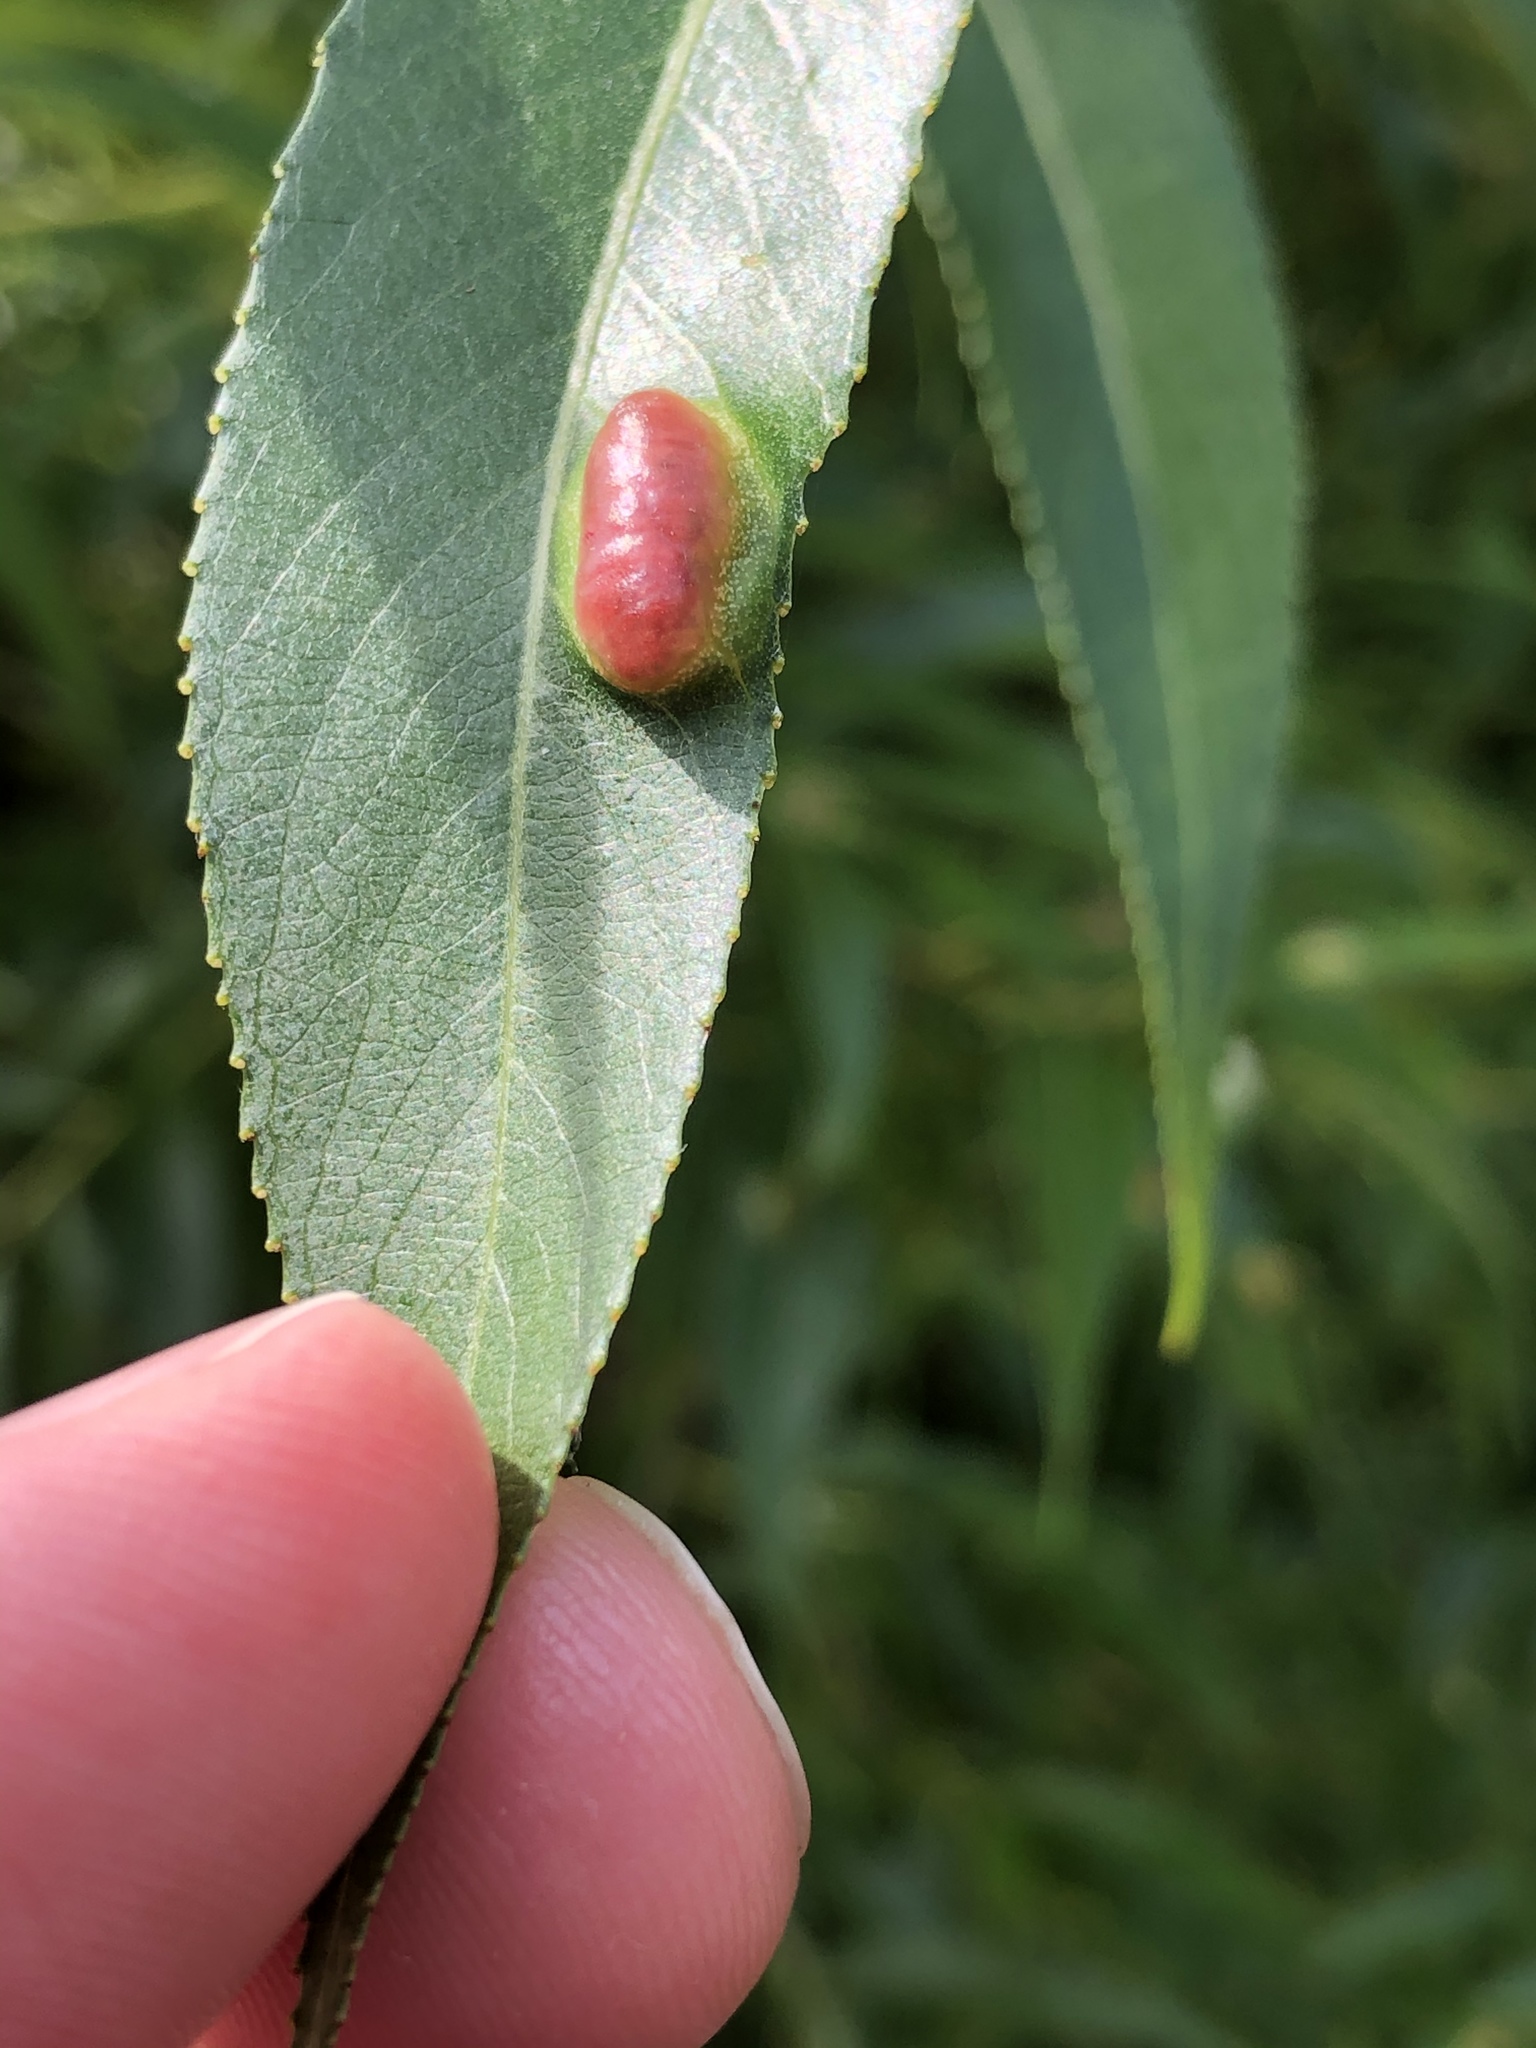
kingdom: Animalia
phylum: Arthropoda
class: Insecta
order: Hymenoptera
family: Tenthredinidae
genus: Pontania
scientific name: Pontania proxima
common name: Common sawfly
